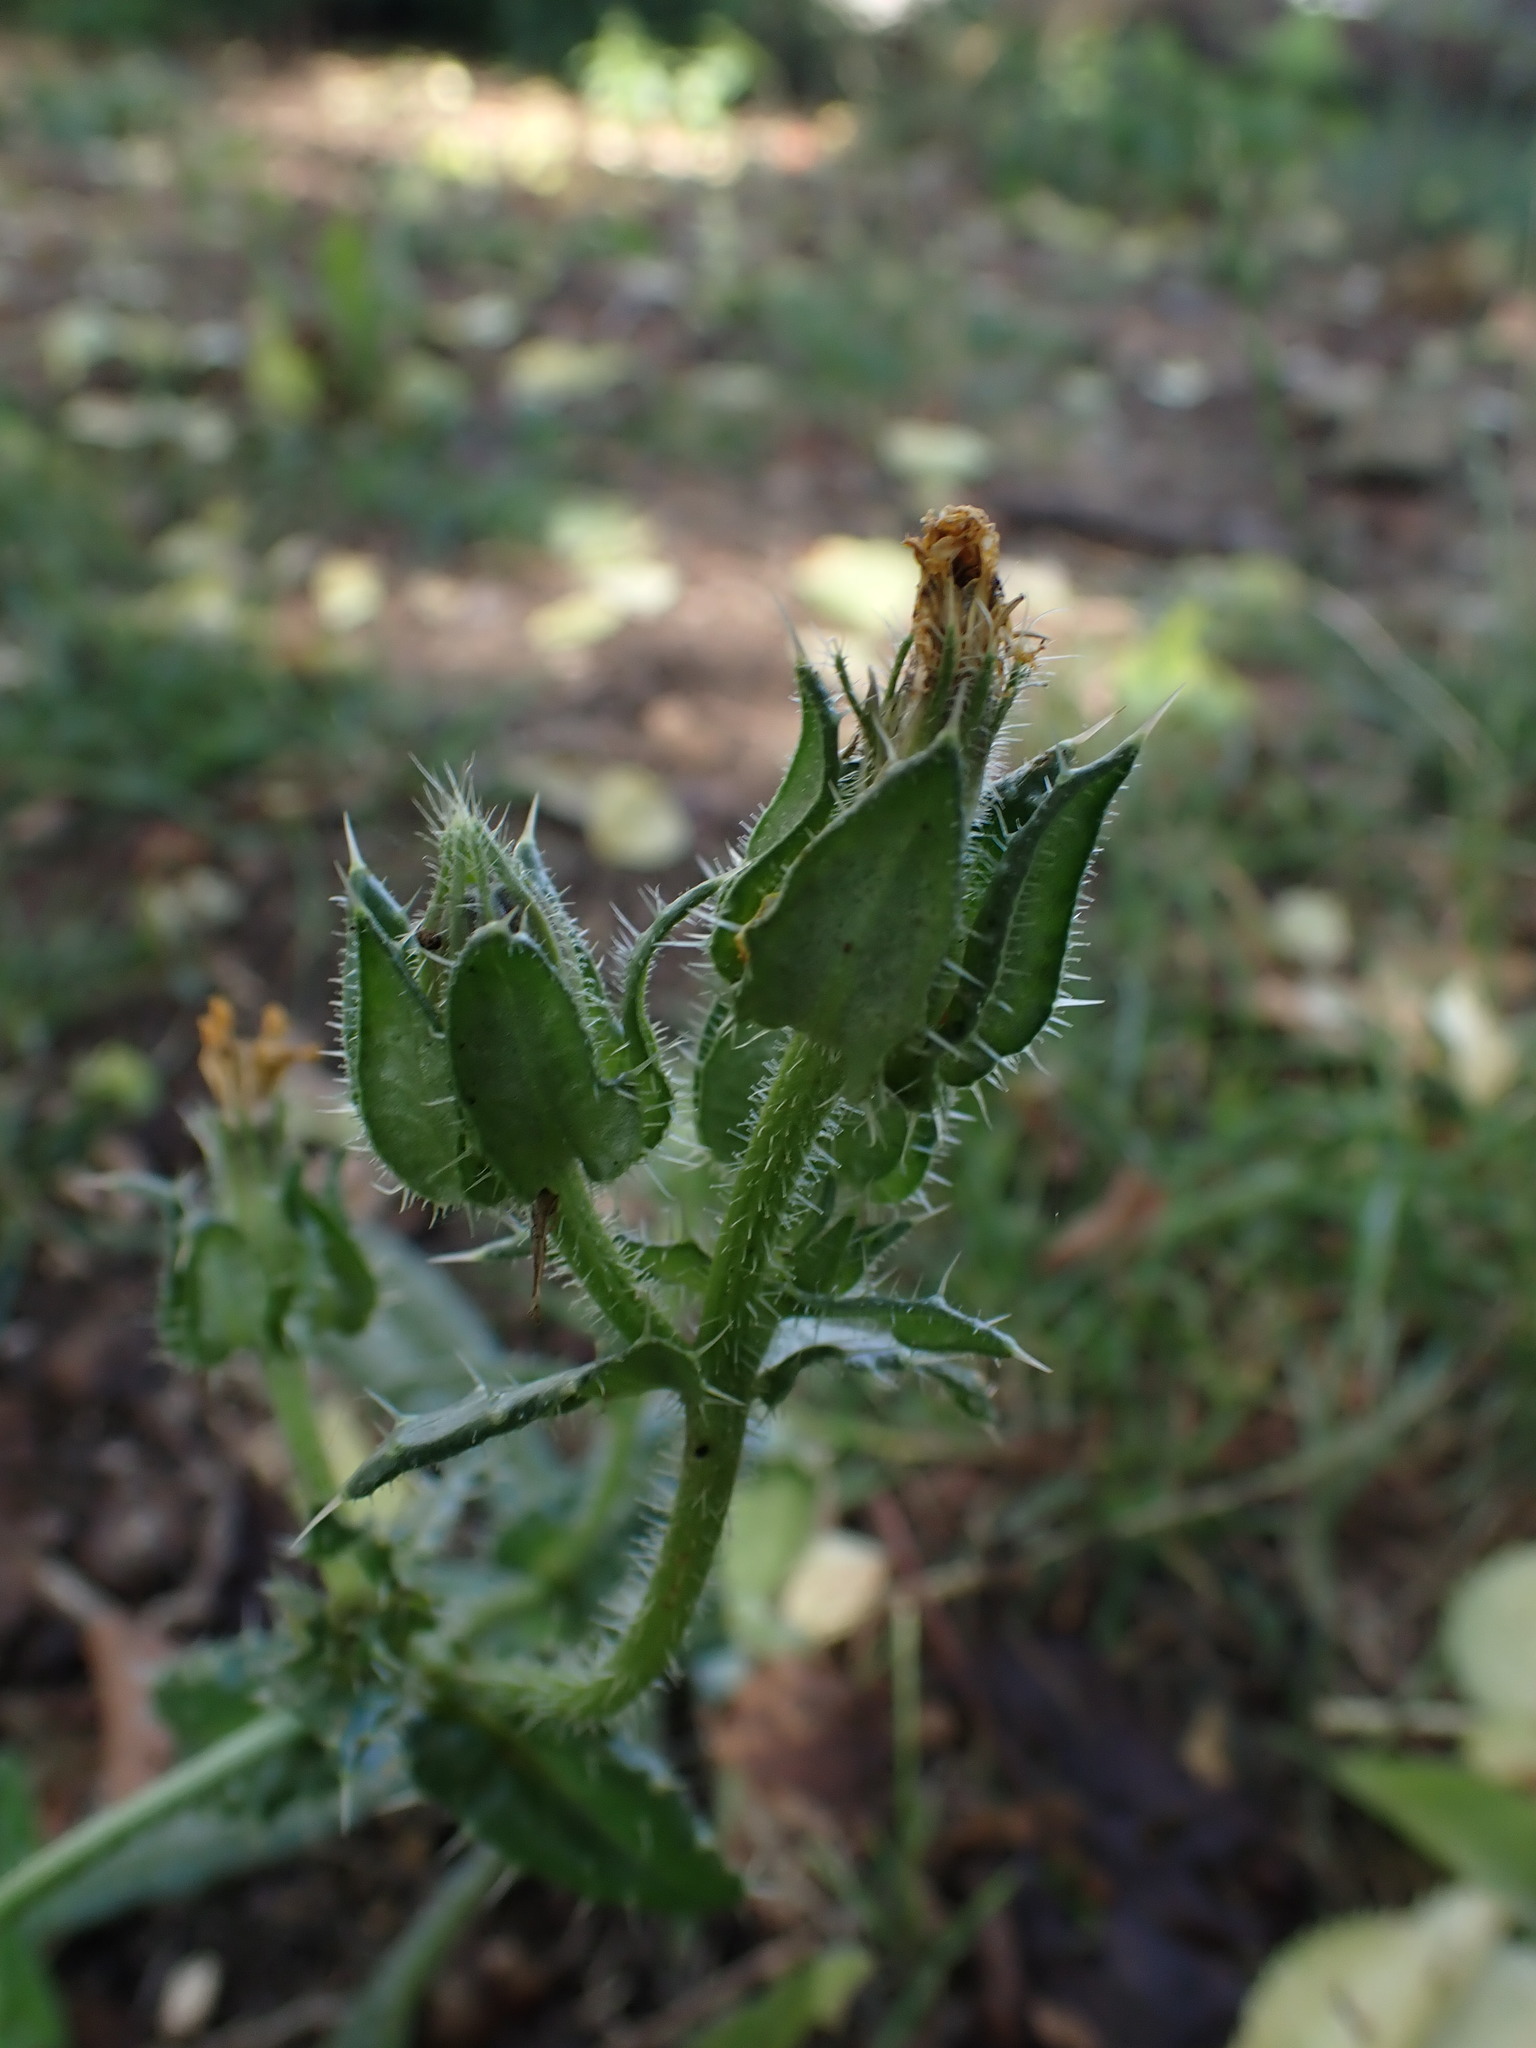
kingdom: Plantae
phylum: Tracheophyta
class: Magnoliopsida
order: Asterales
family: Asteraceae
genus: Helminthotheca
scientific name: Helminthotheca echioides
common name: Ox-tongue
